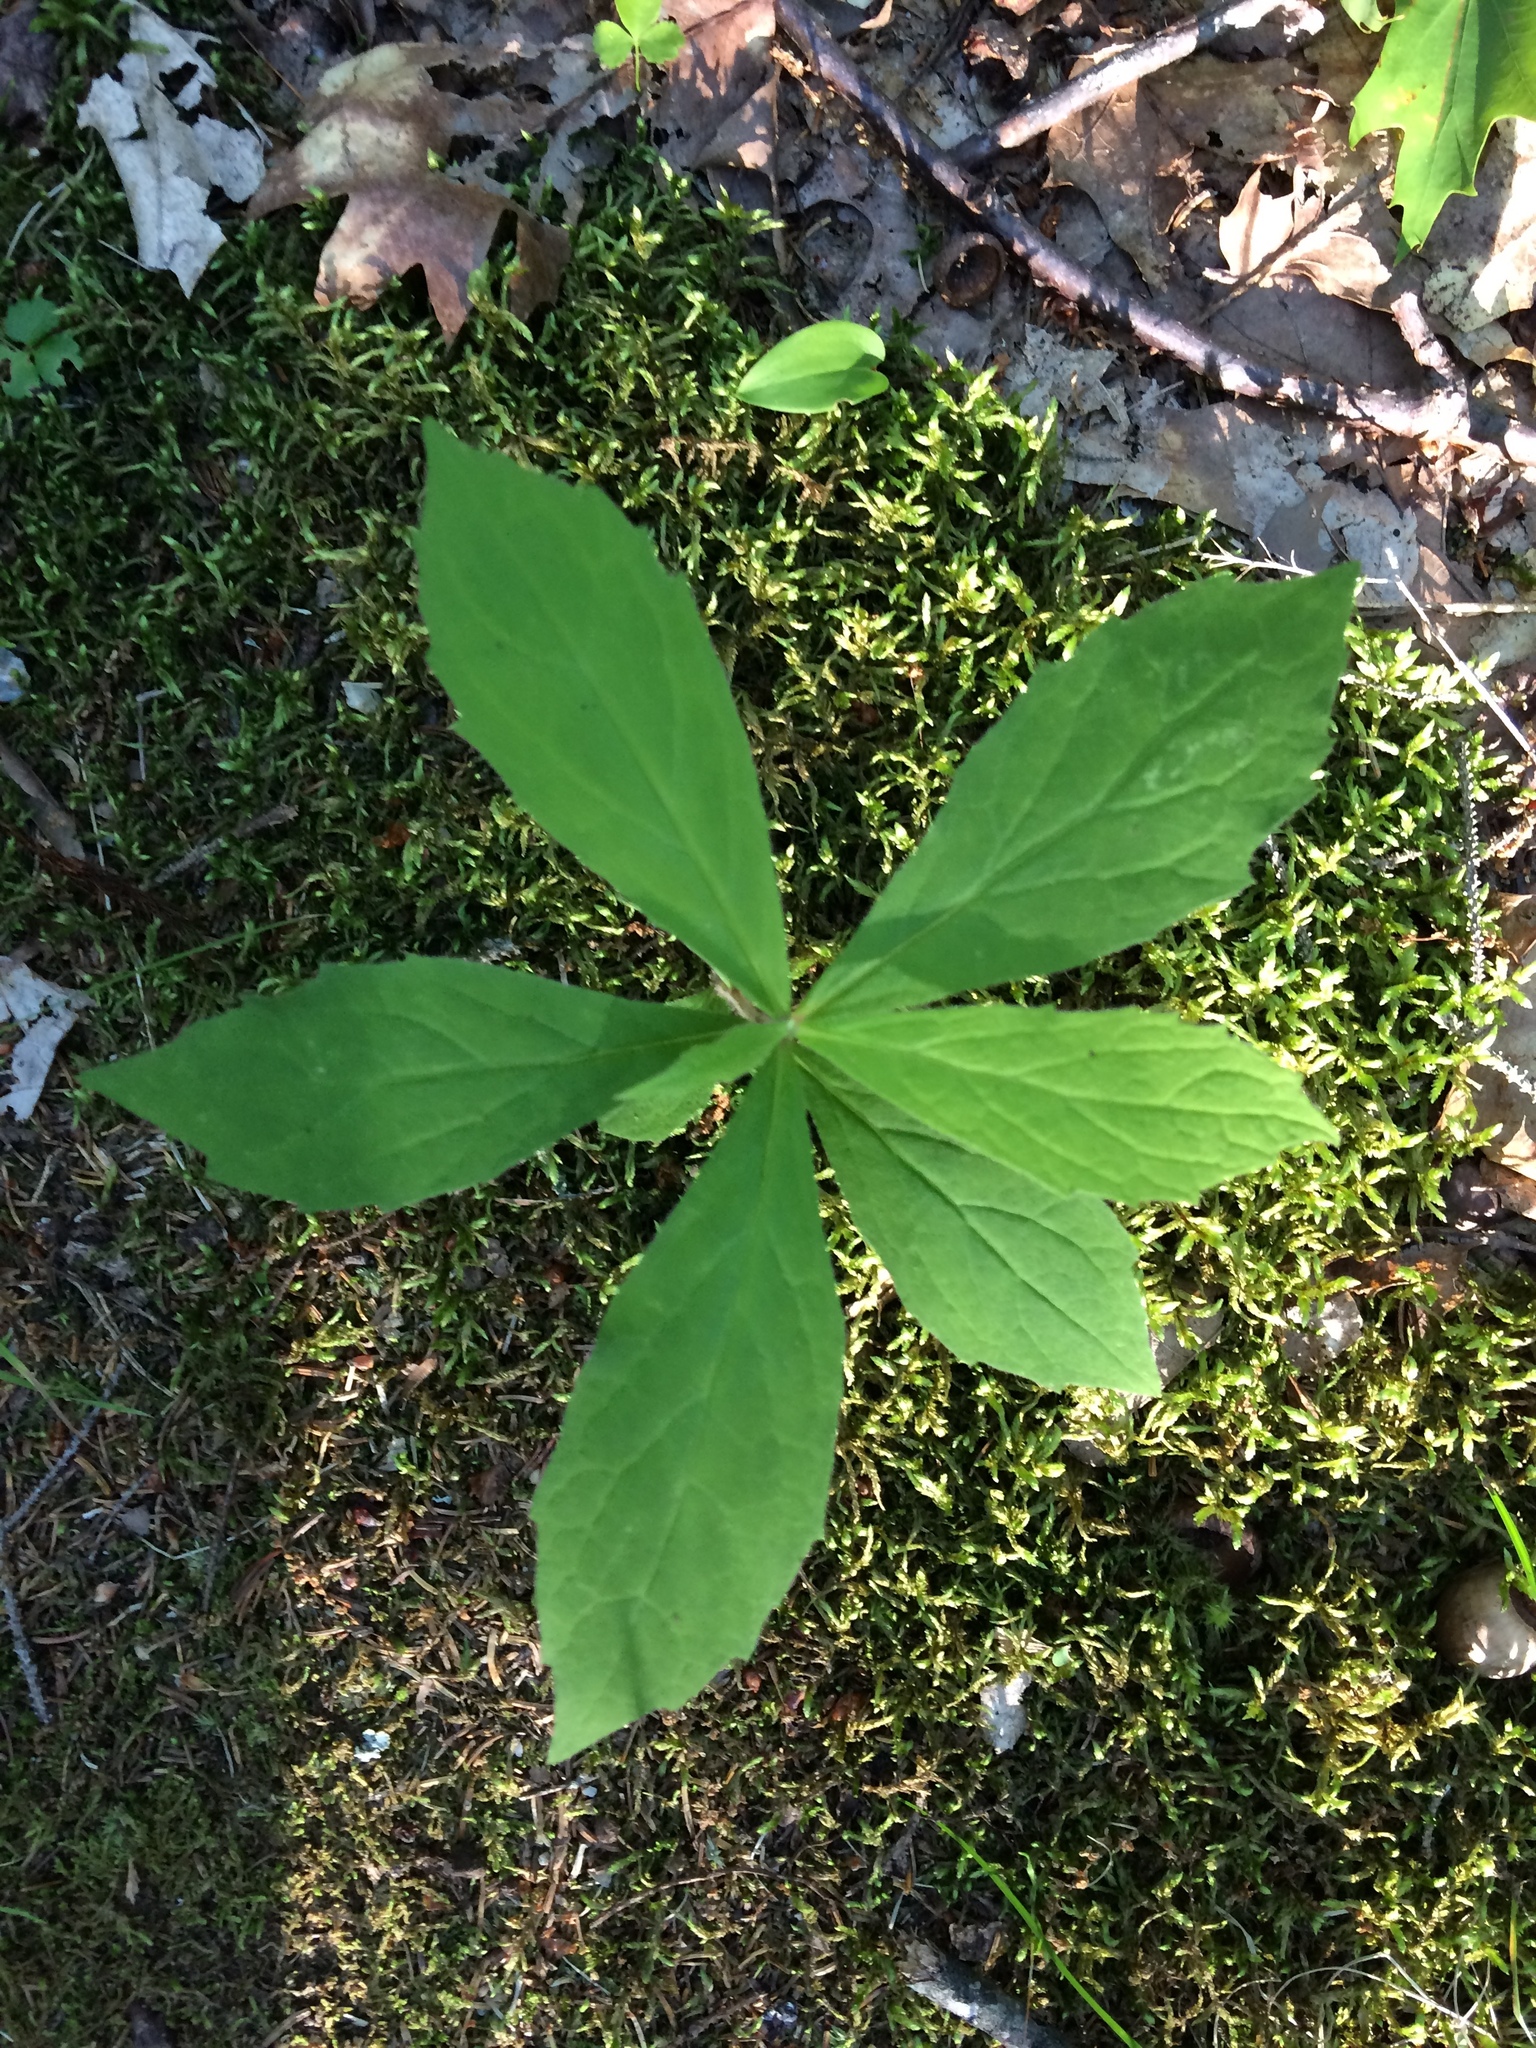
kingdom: Plantae
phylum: Tracheophyta
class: Magnoliopsida
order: Asterales
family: Asteraceae
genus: Oclemena
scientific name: Oclemena acuminata
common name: Mountain aster
